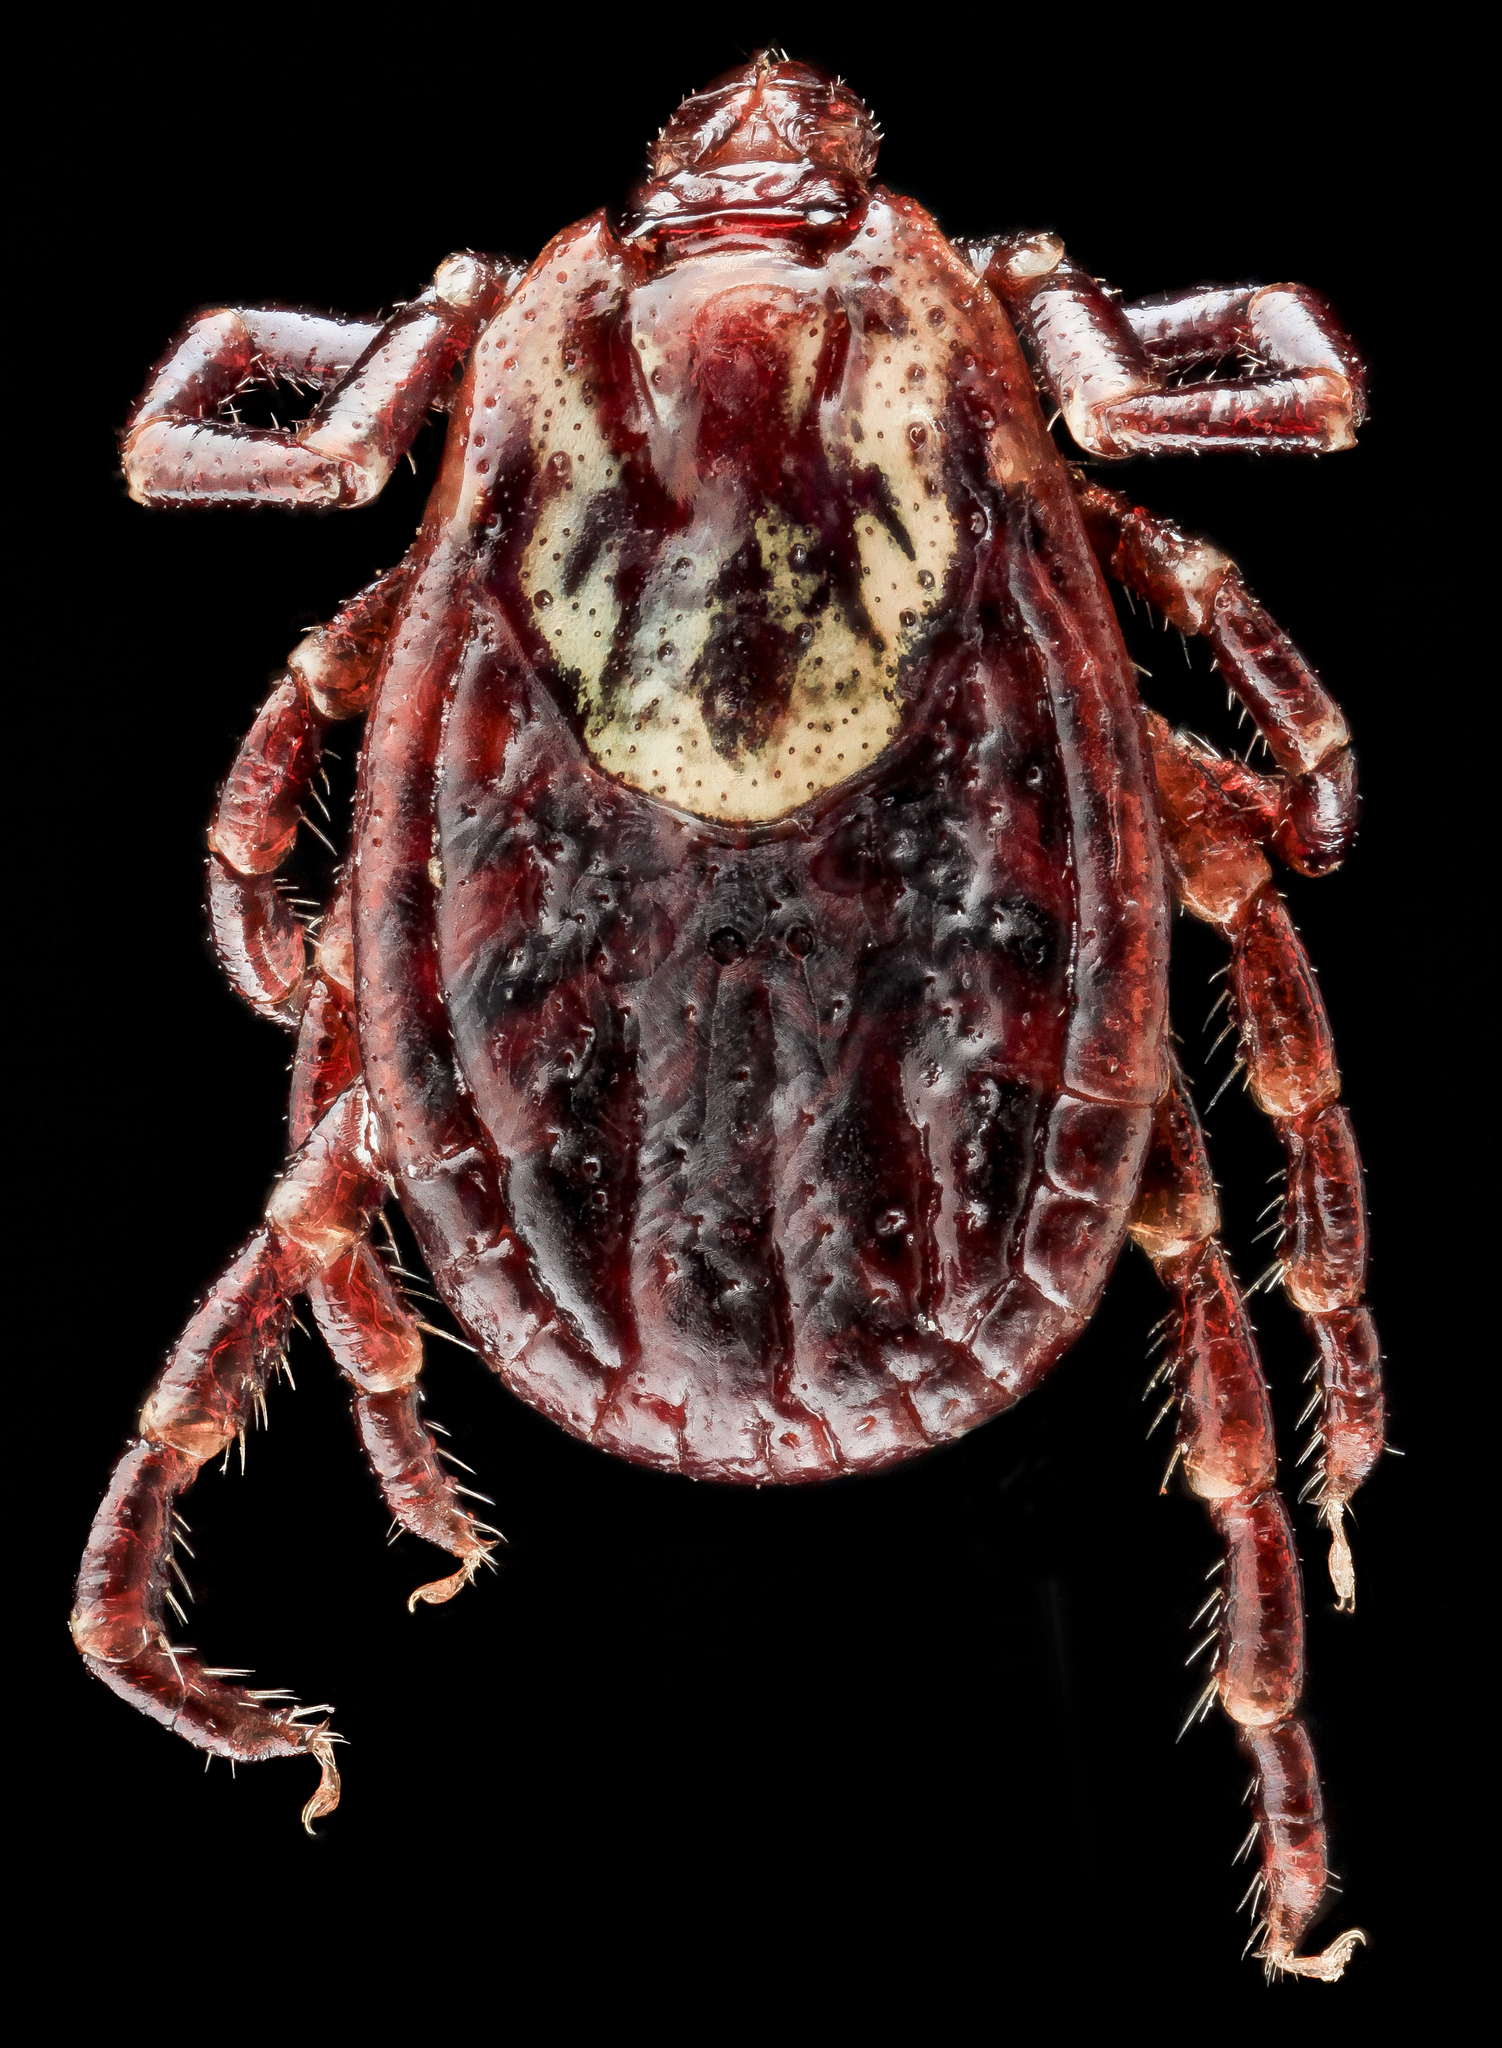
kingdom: Animalia
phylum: Arthropoda
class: Arachnida
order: Ixodida
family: Ixodidae
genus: Dermacentor
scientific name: Dermacentor variabilis
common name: American dog tick
